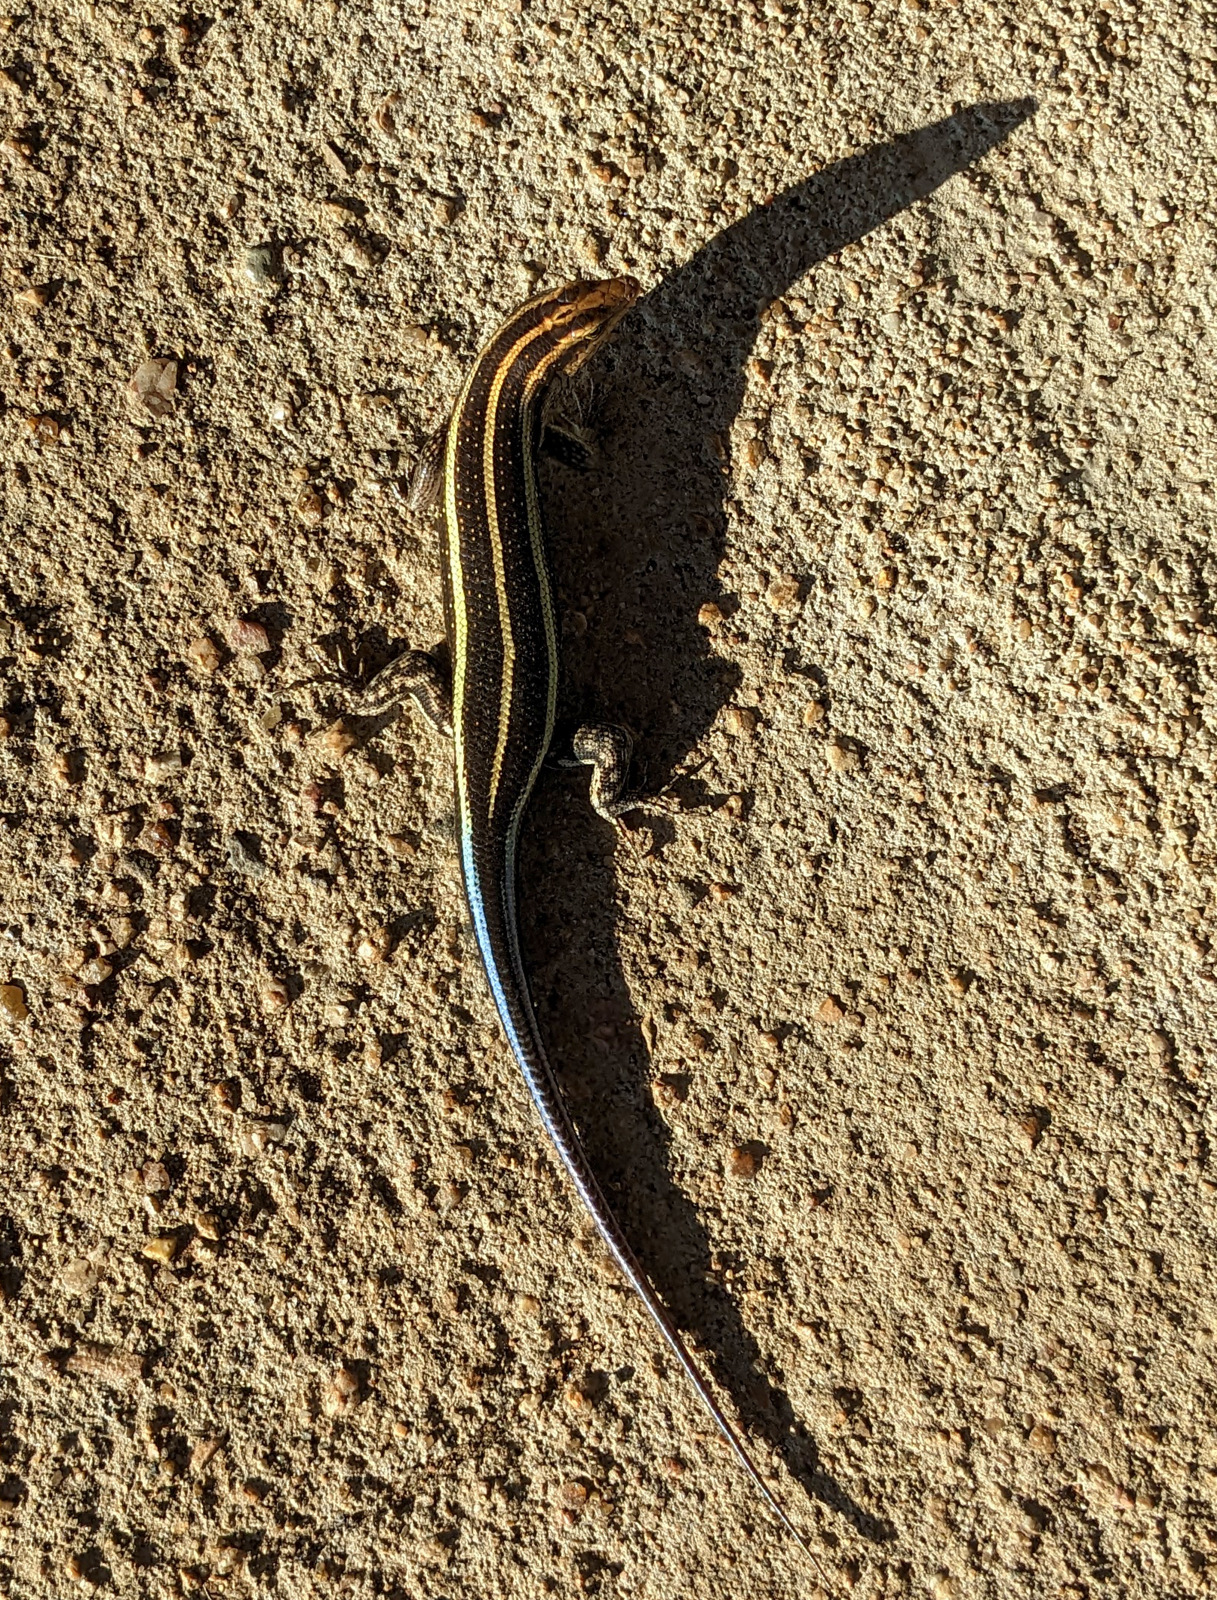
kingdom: Animalia
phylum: Chordata
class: Squamata
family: Scincidae
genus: Trachylepis
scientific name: Trachylepis margaritifera
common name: Rainbow skink
